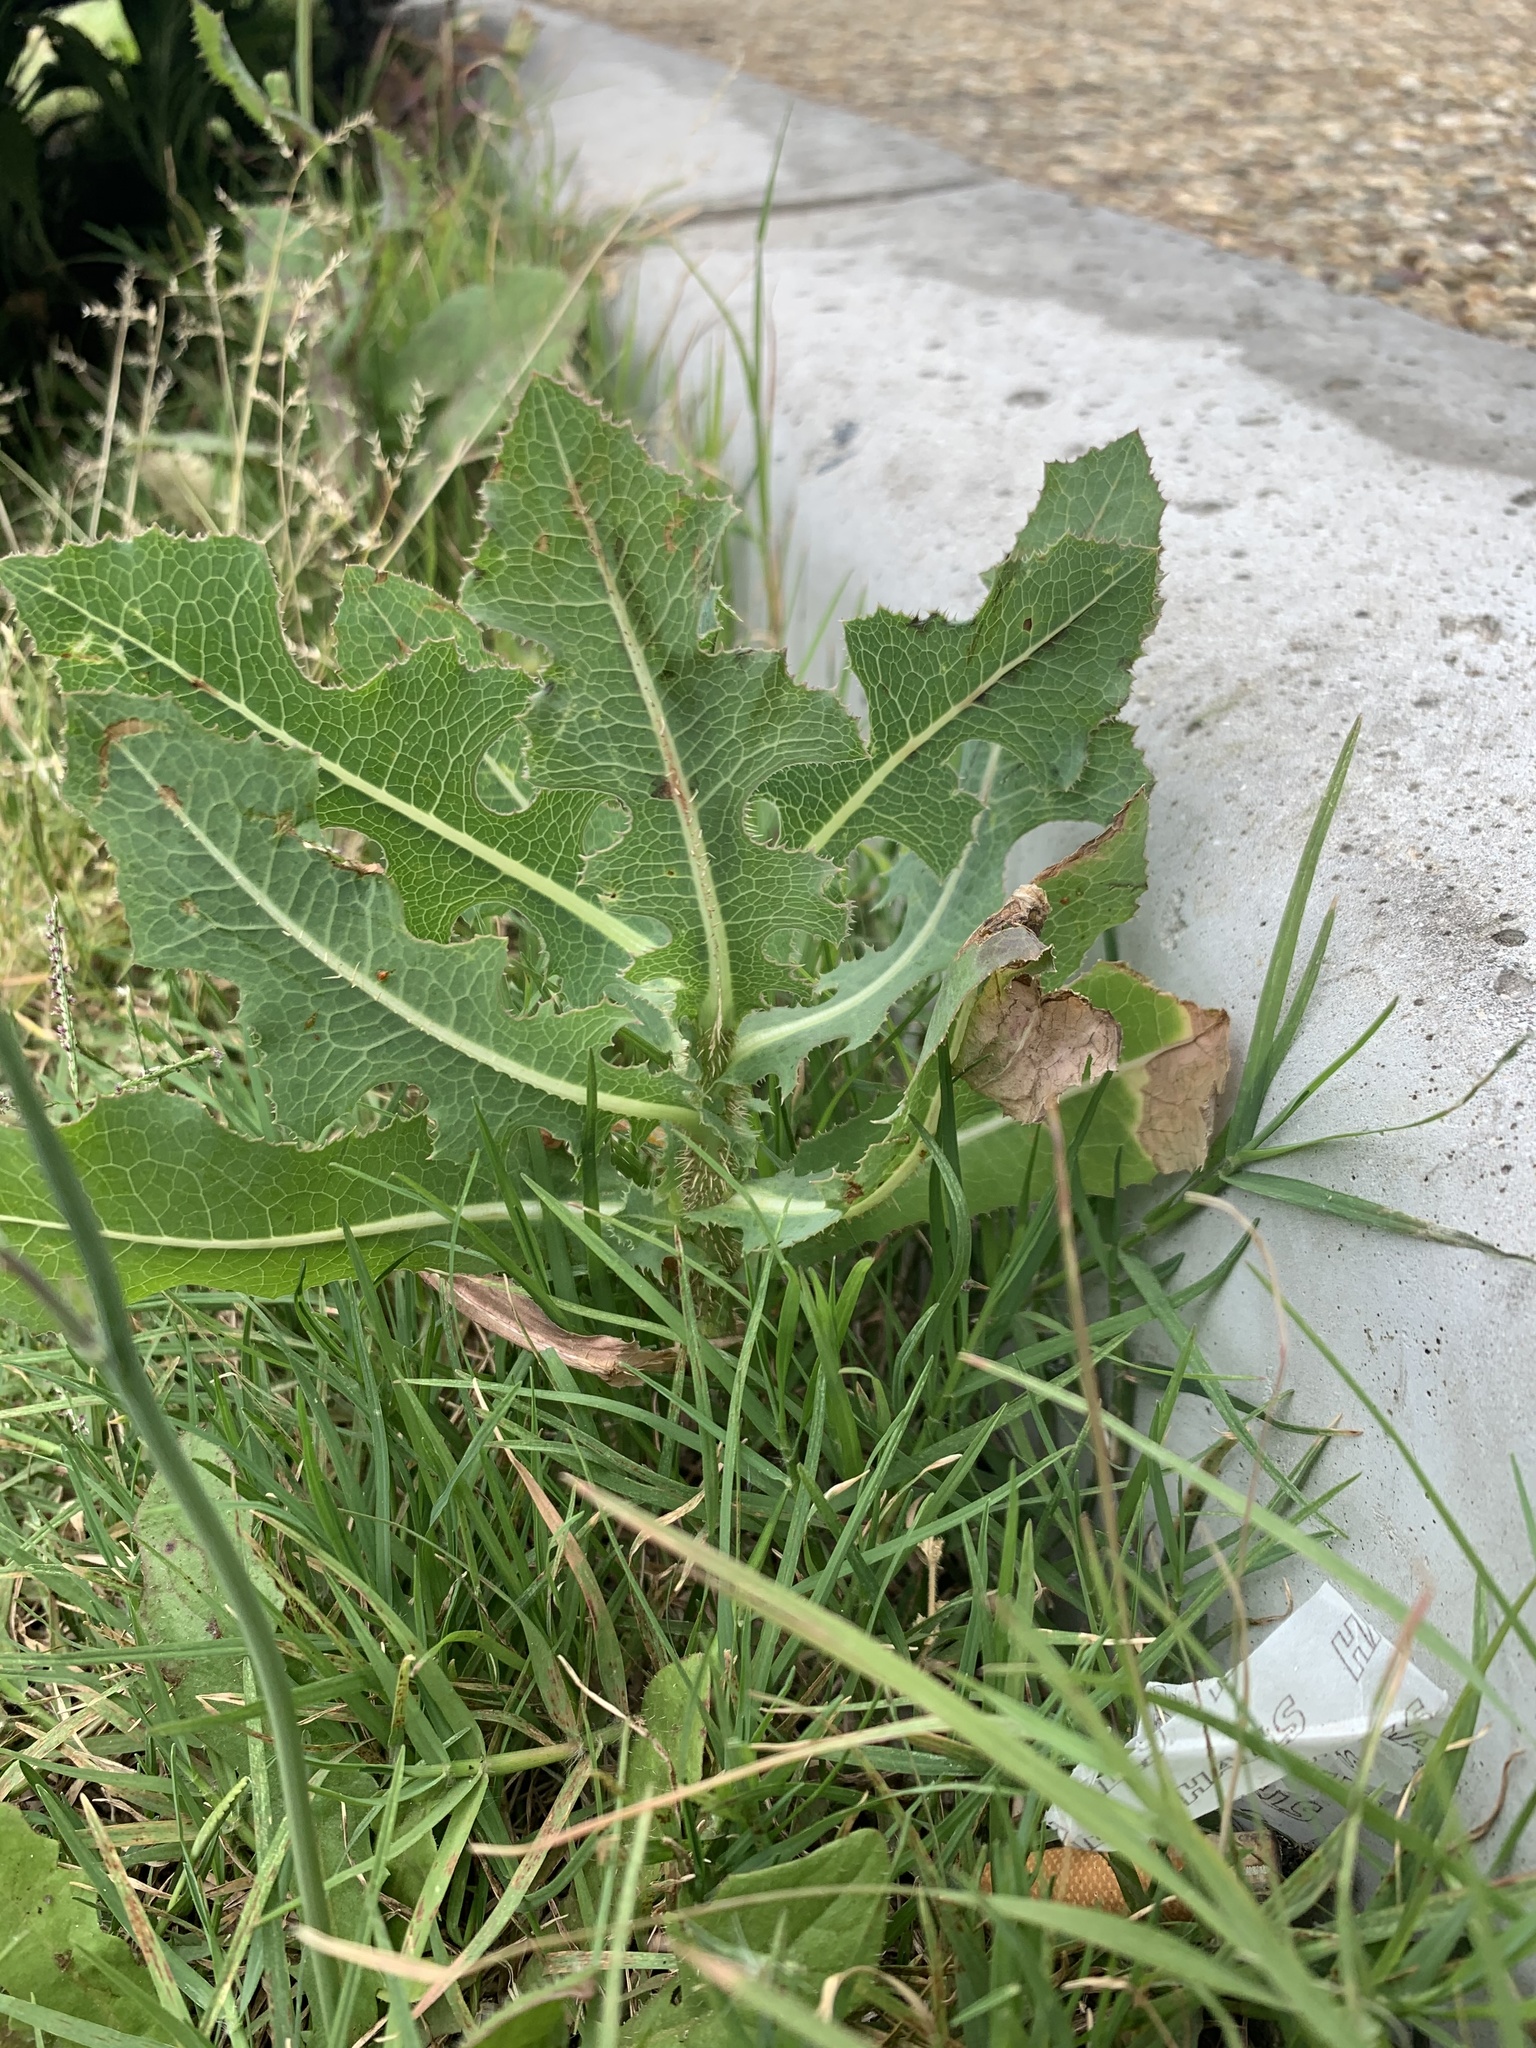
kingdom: Plantae
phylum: Tracheophyta
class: Magnoliopsida
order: Asterales
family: Asteraceae
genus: Lactuca
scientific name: Lactuca serriola
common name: Prickly lettuce
